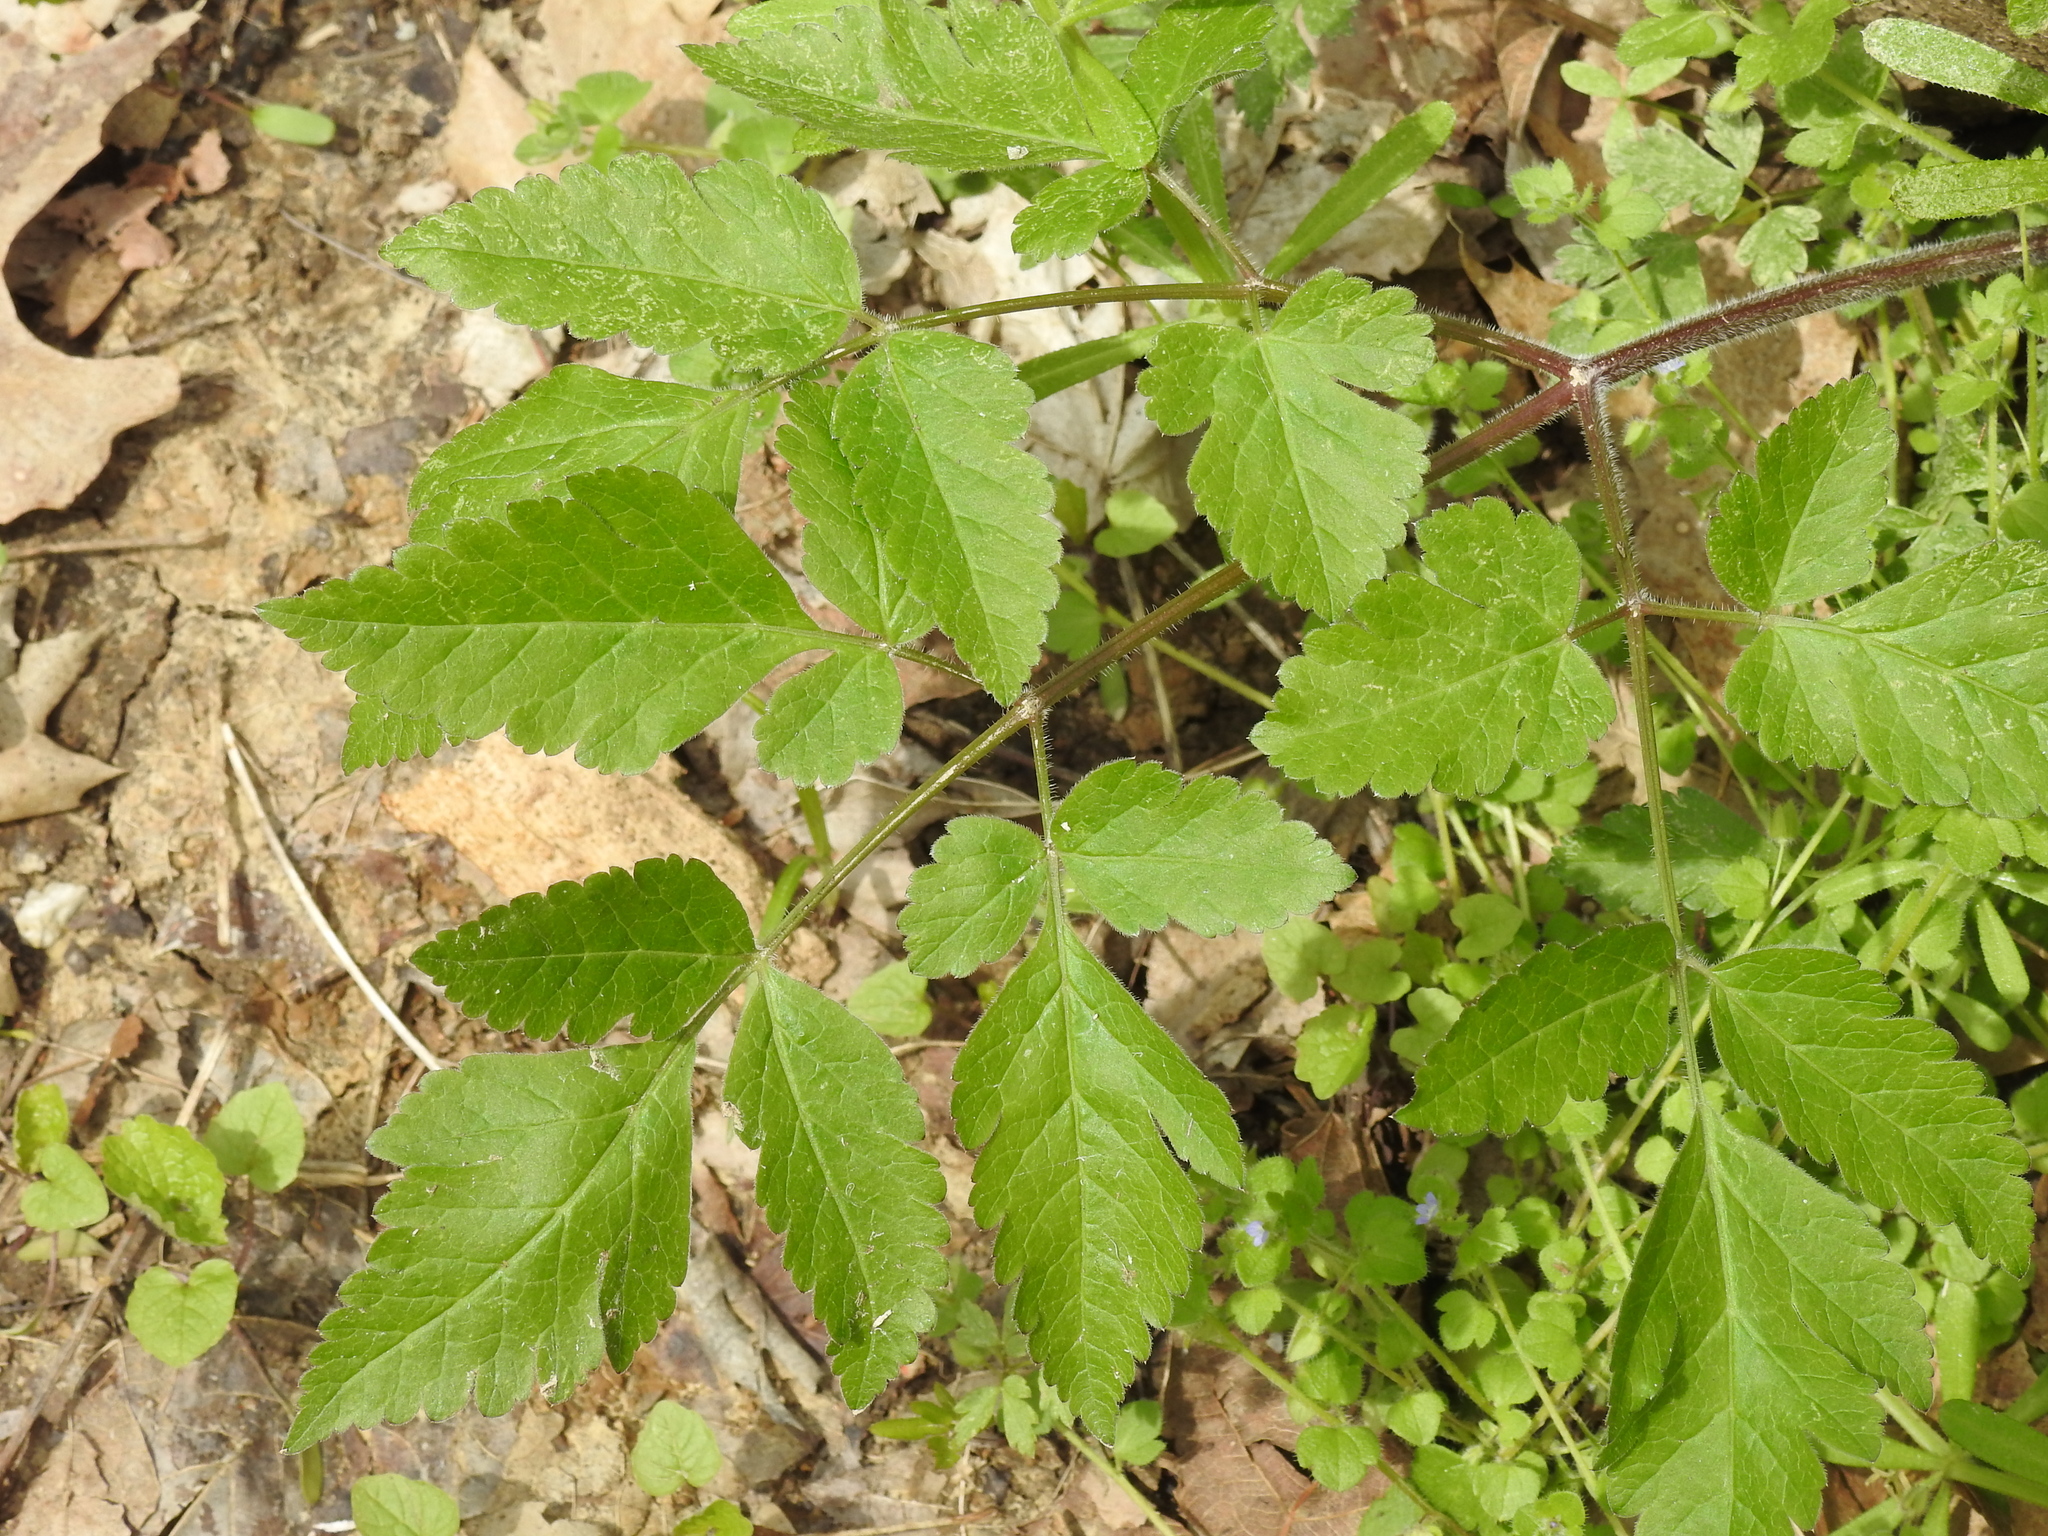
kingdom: Plantae
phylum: Tracheophyta
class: Magnoliopsida
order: Apiales
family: Apiaceae
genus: Osmorhiza
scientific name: Osmorhiza claytonii
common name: Hairy sweet cicely
